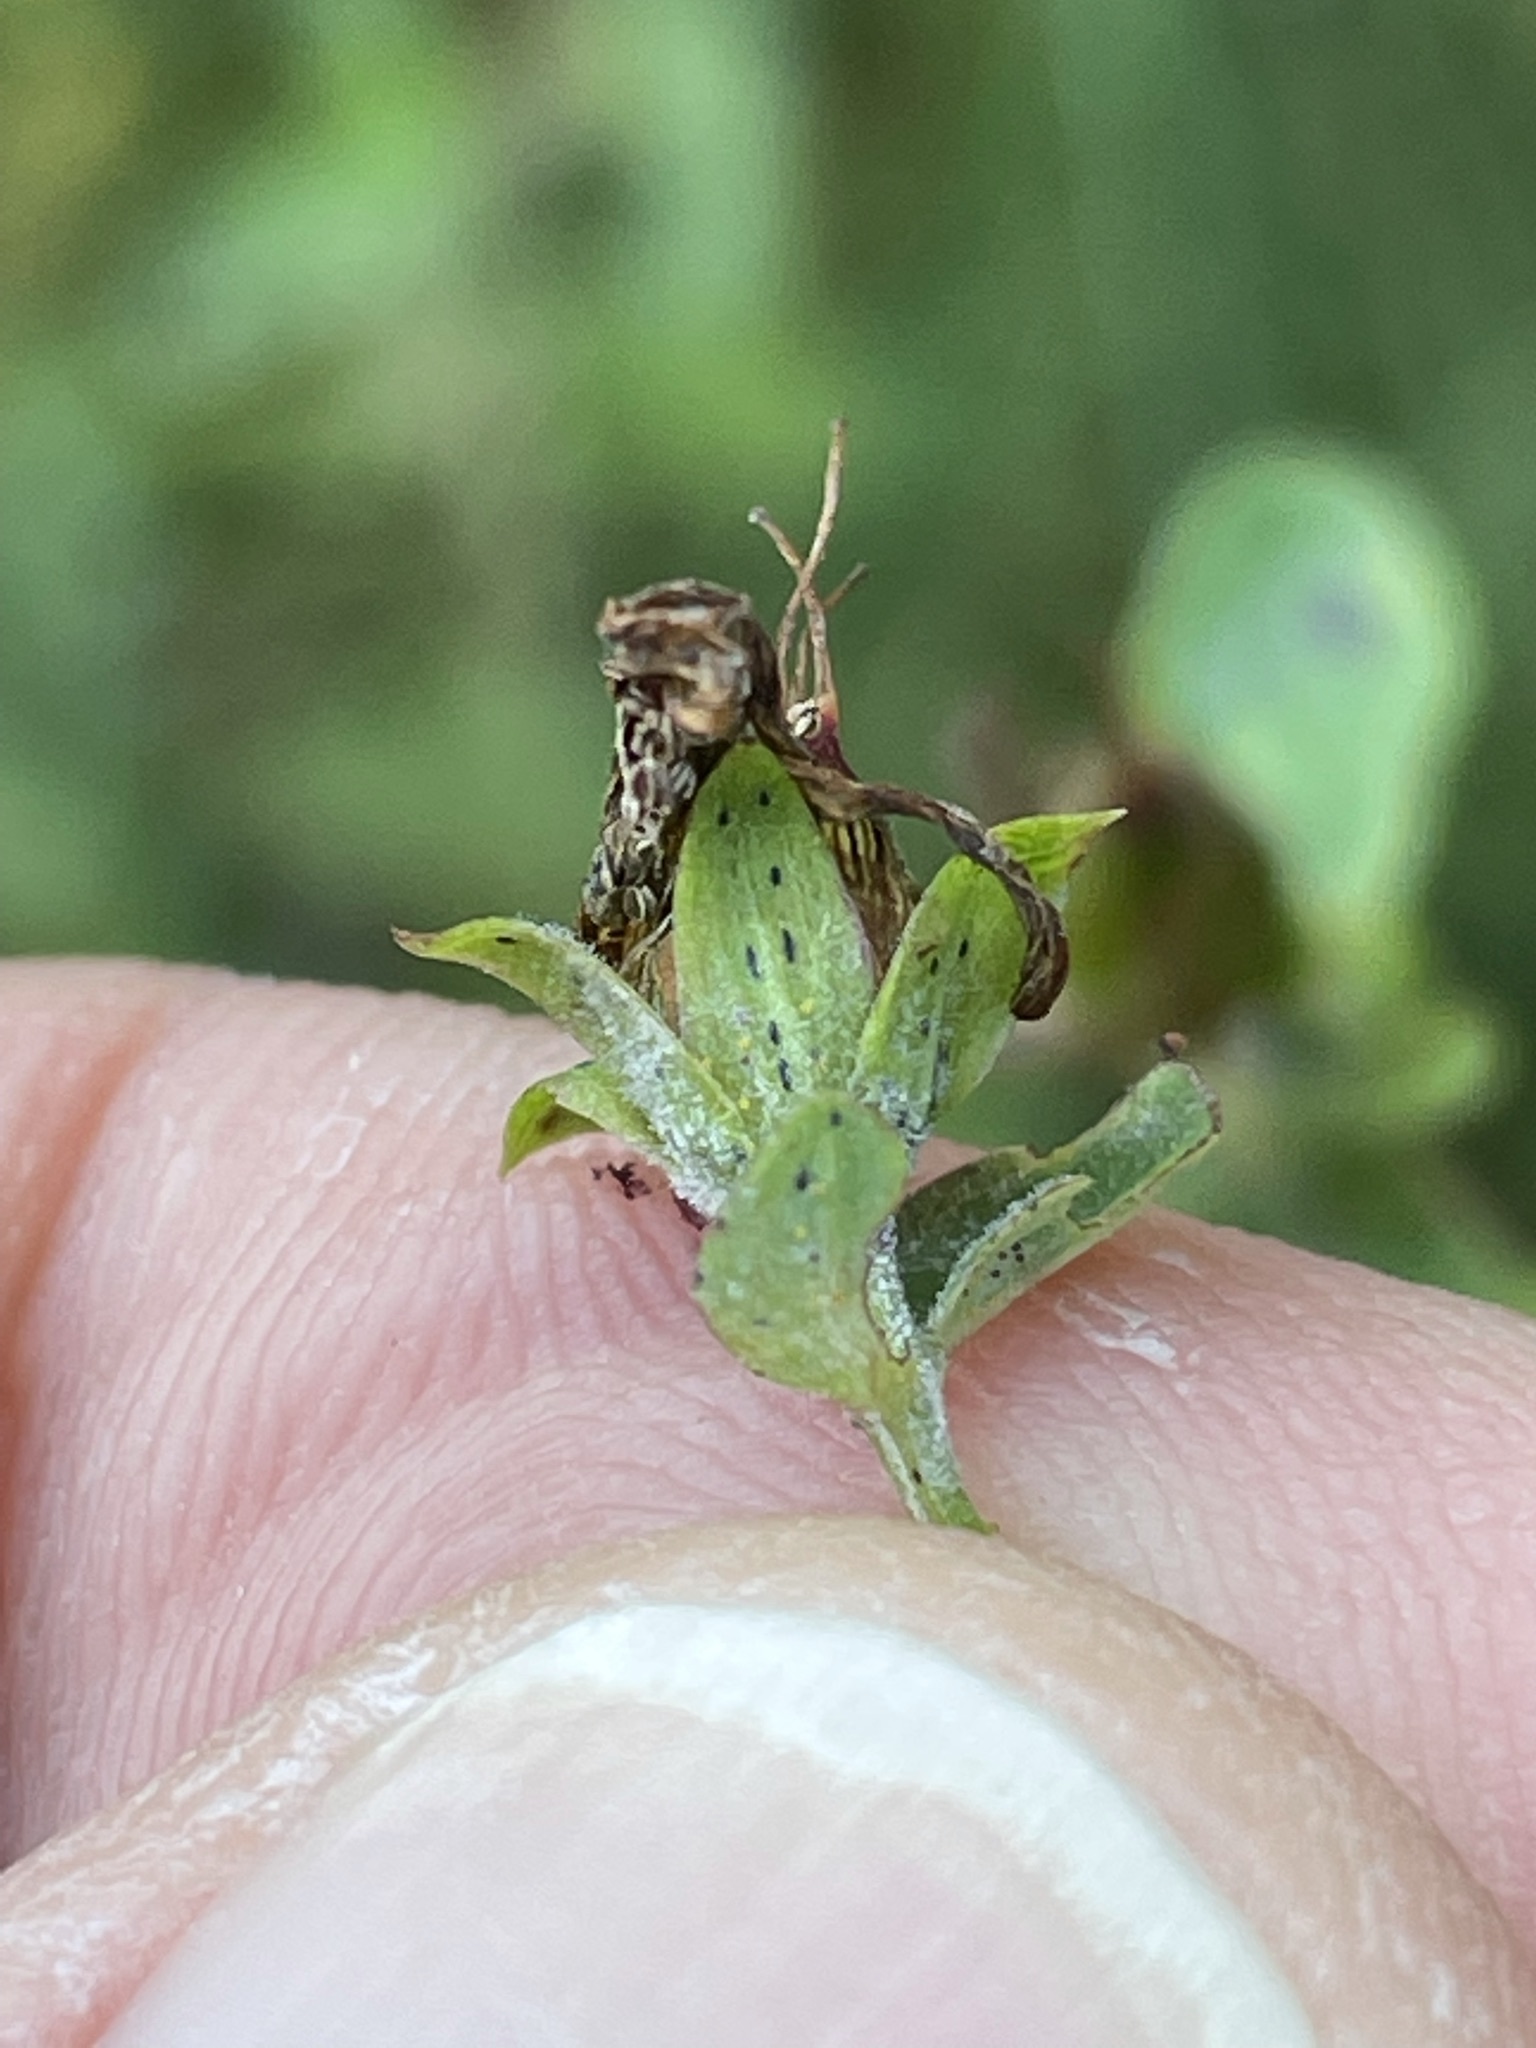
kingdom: Plantae
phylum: Tracheophyta
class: Magnoliopsida
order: Malpighiales
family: Hypericaceae
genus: Hypericum
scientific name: Hypericum maculatum
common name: Imperforate st. john's-wort
